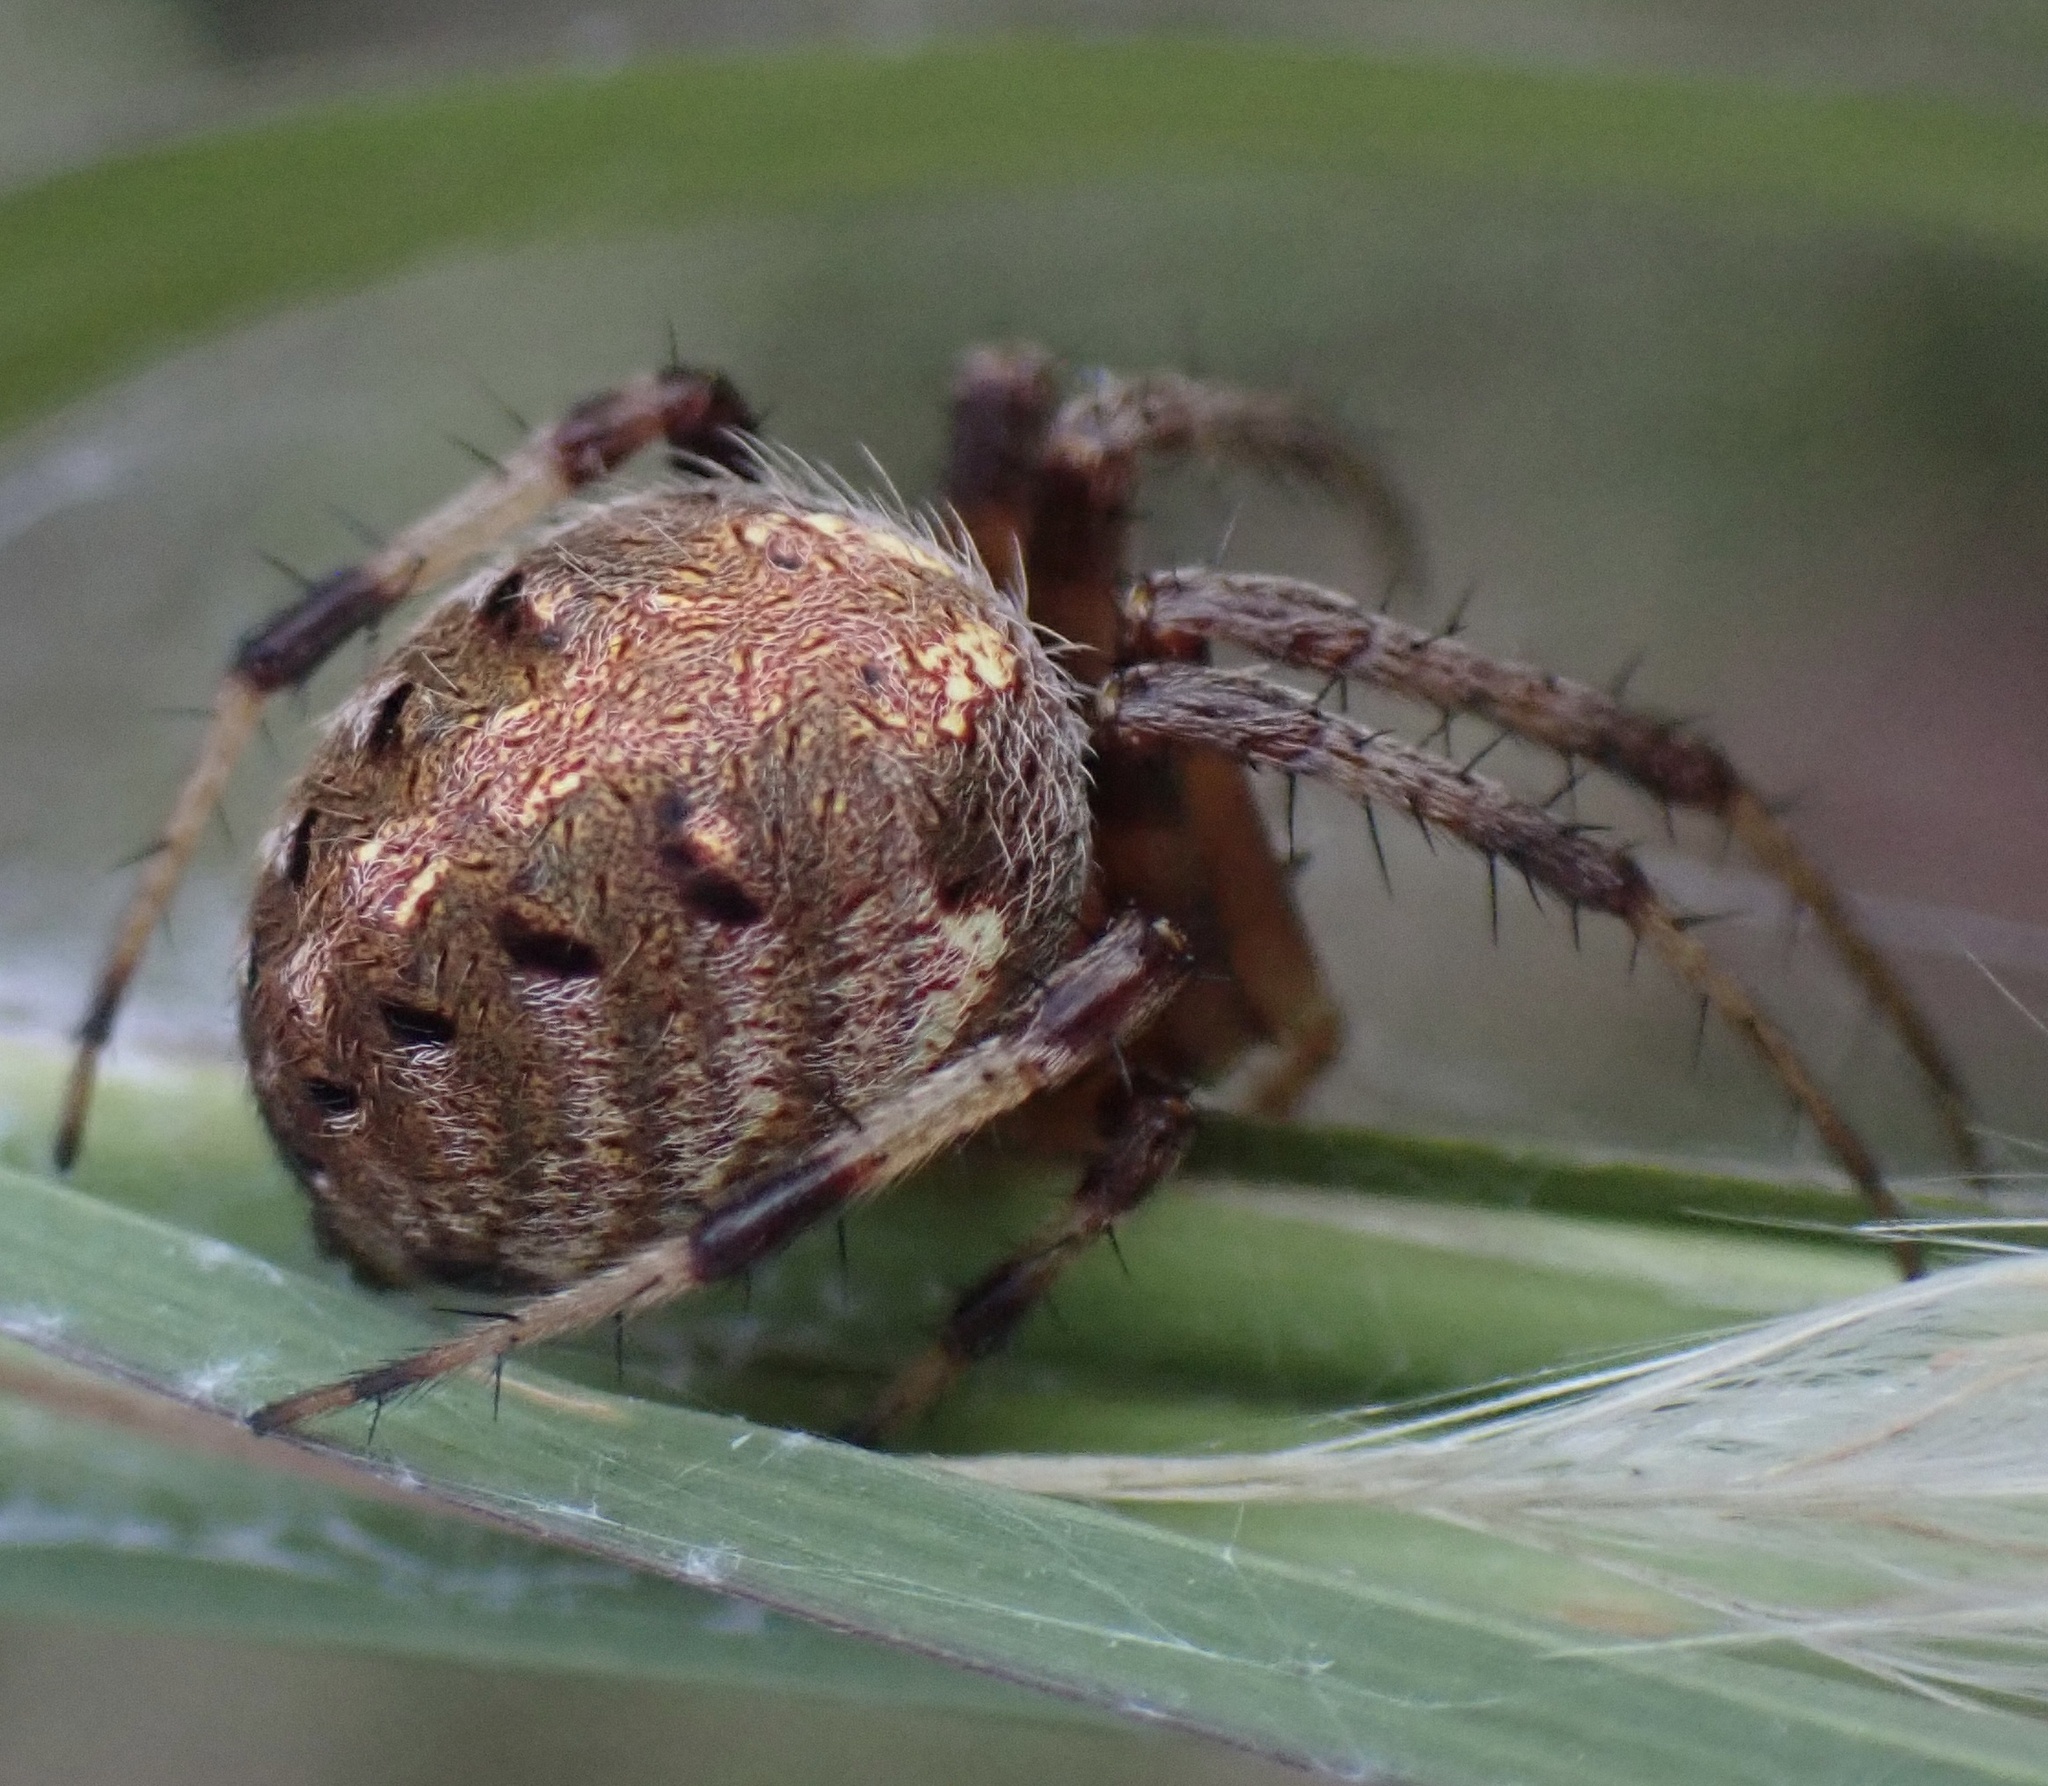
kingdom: Animalia
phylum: Arthropoda
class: Arachnida
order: Araneae
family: Araneidae
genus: Neoscona
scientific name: Neoscona arabesca
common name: Orb weavers
